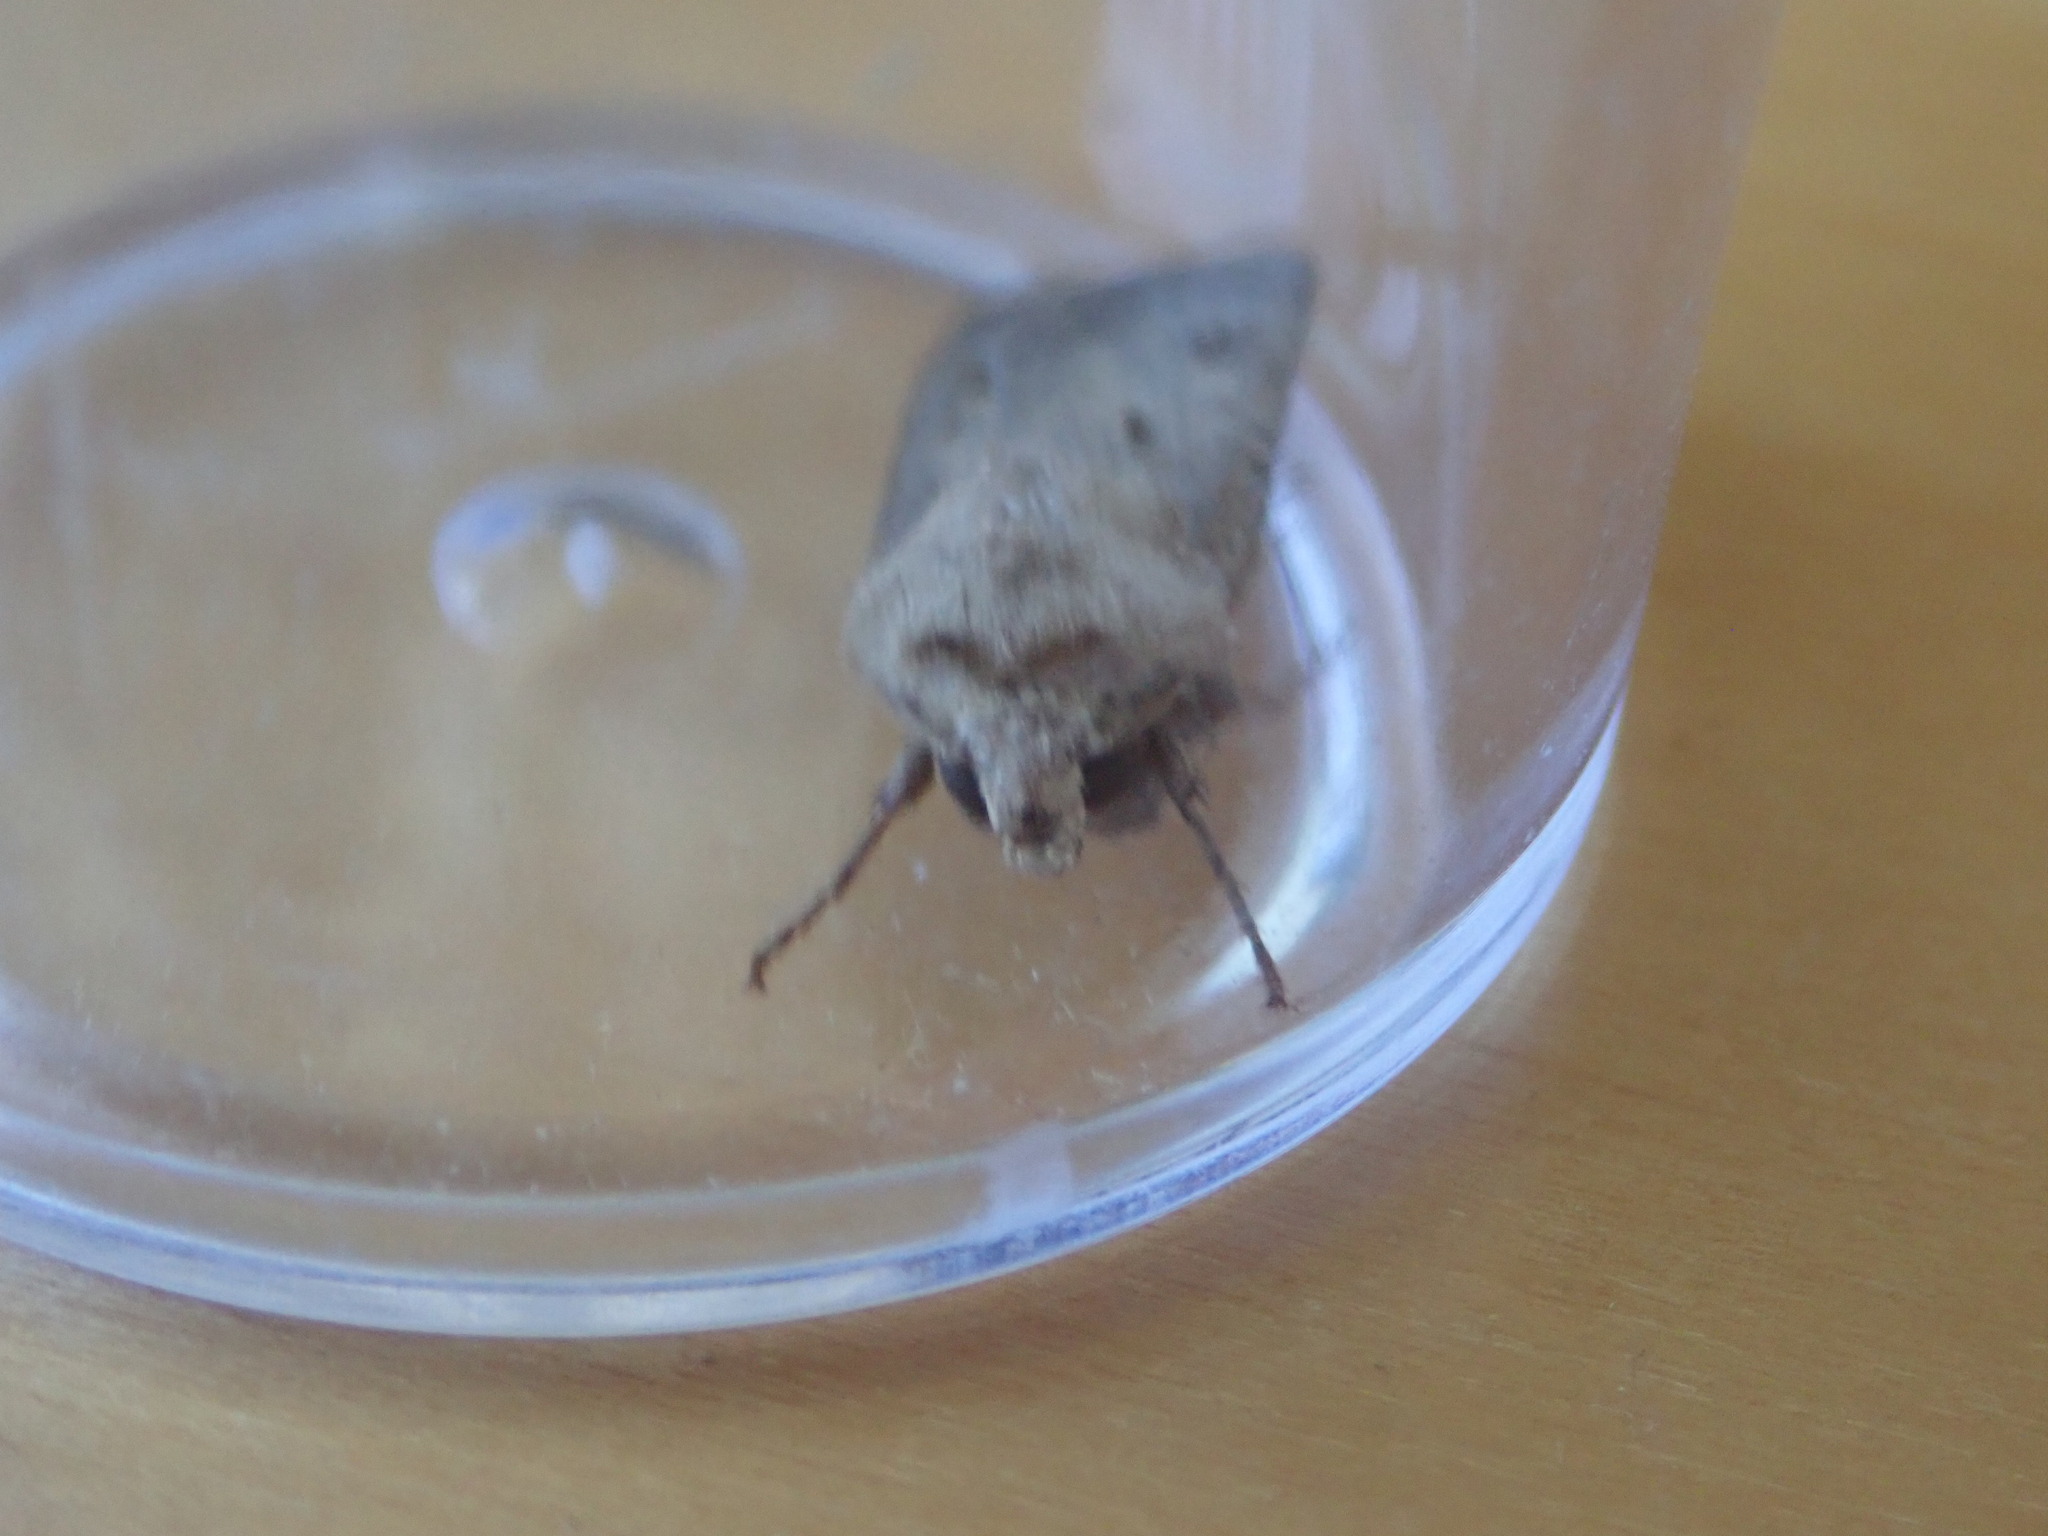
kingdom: Animalia
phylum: Arthropoda
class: Insecta
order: Lepidoptera
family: Noctuidae
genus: Agrotis
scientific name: Agrotis exclamationis
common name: Heart and dart
